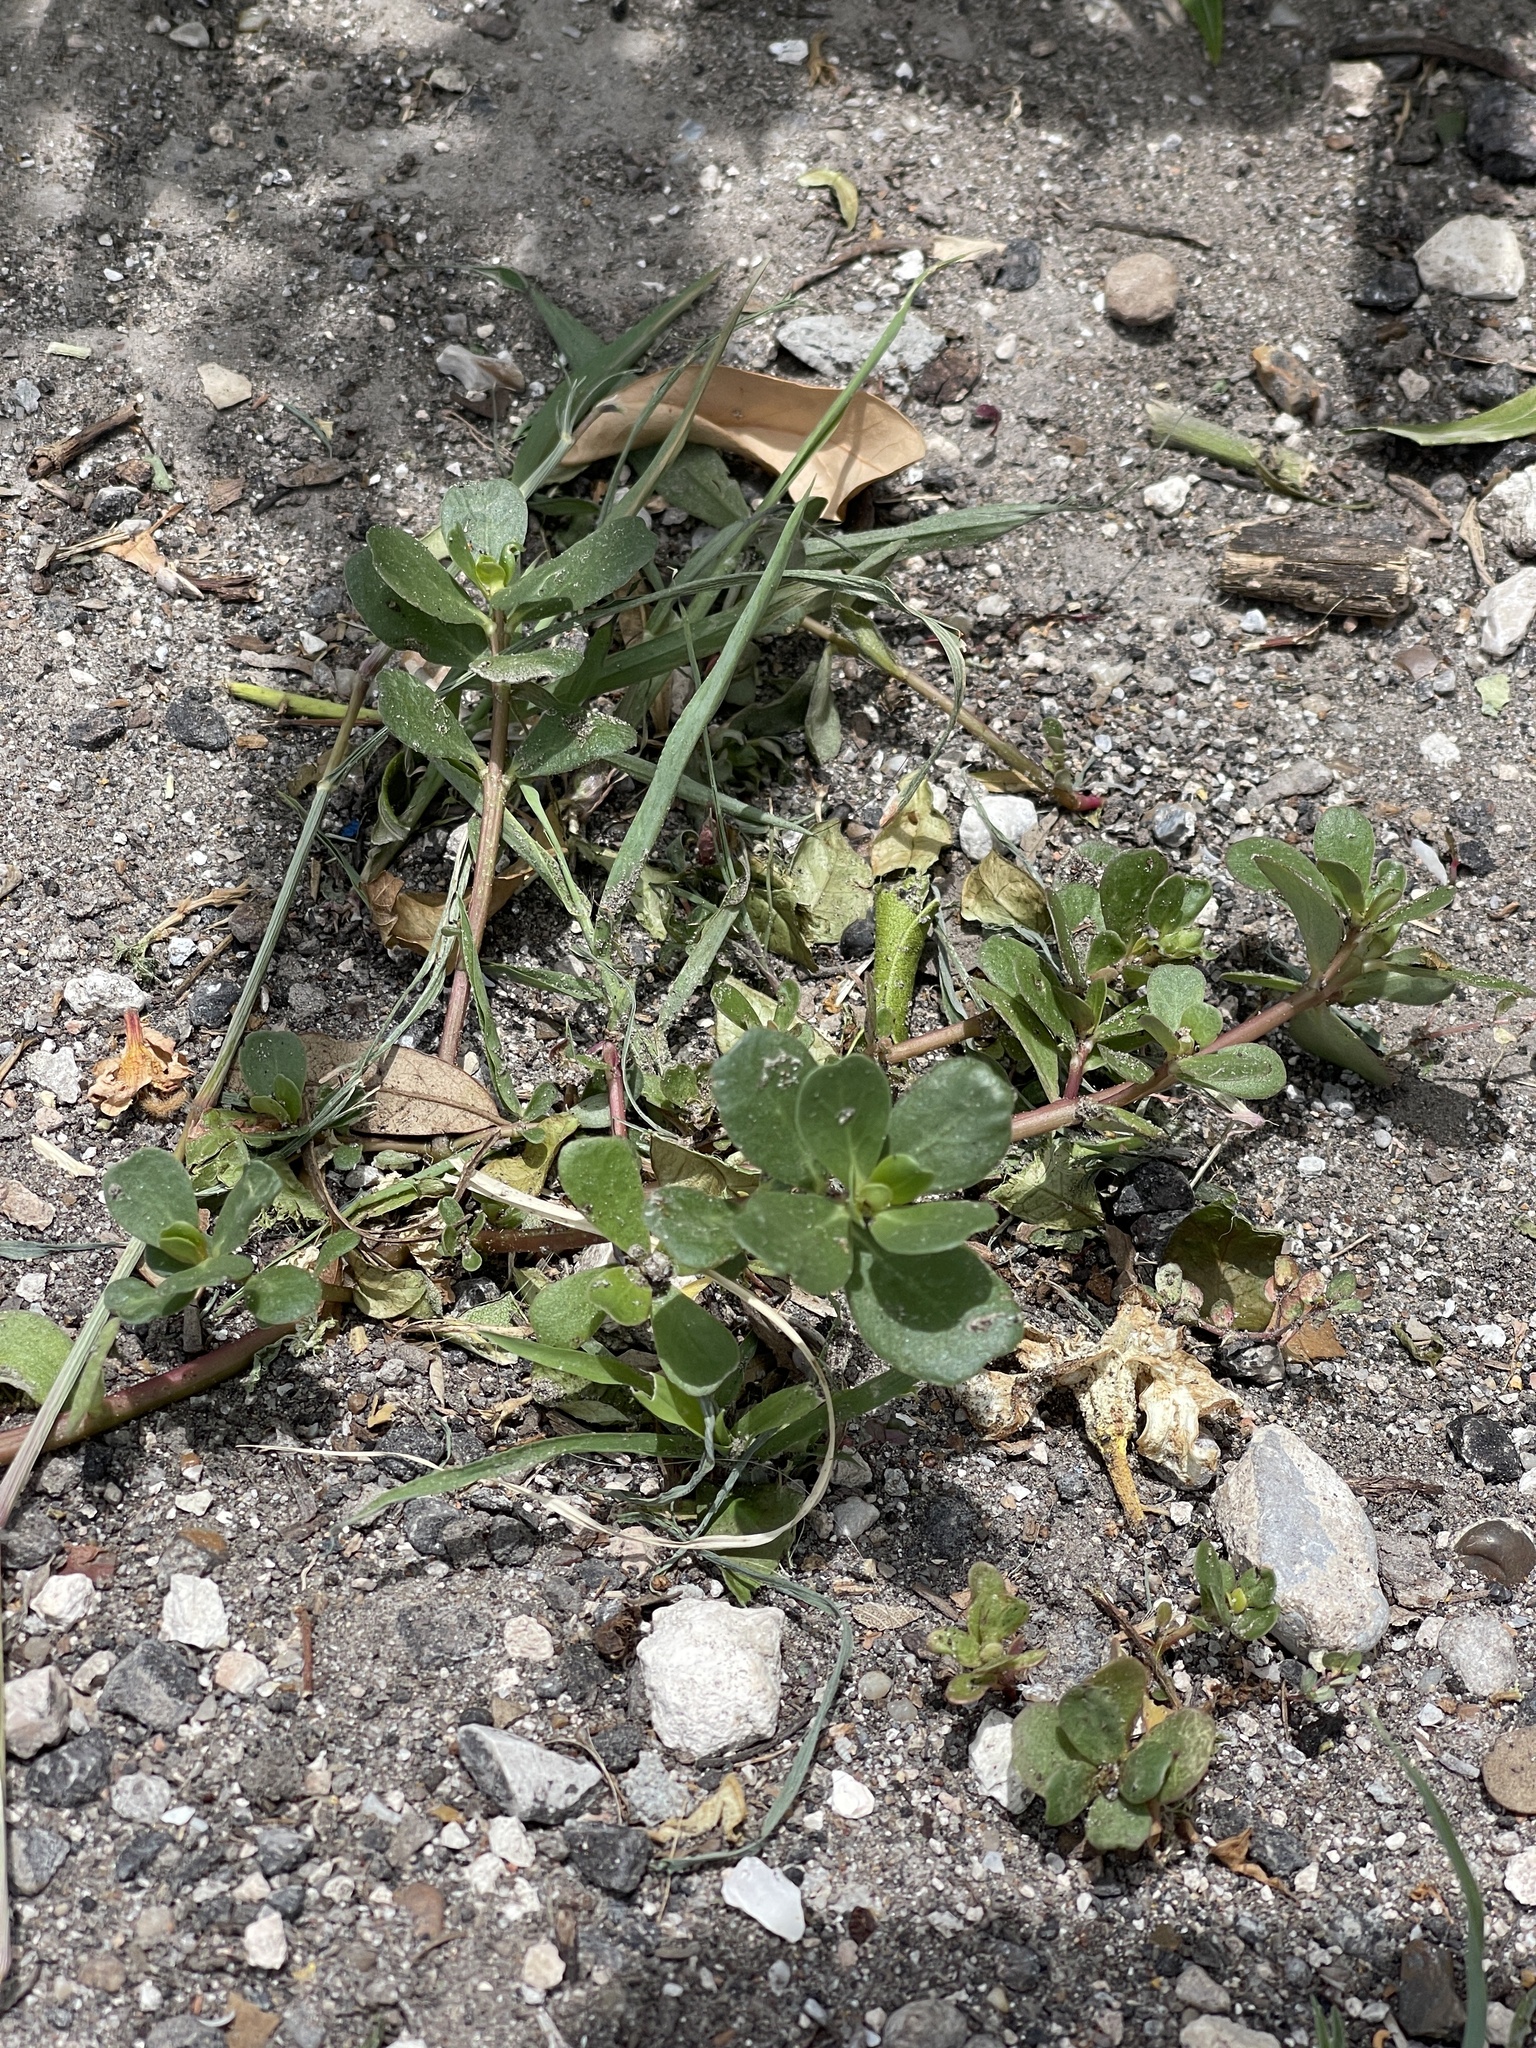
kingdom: Plantae
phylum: Tracheophyta
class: Magnoliopsida
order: Caryophyllales
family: Portulacaceae
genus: Portulaca
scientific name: Portulaca oleracea
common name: Common purslane
